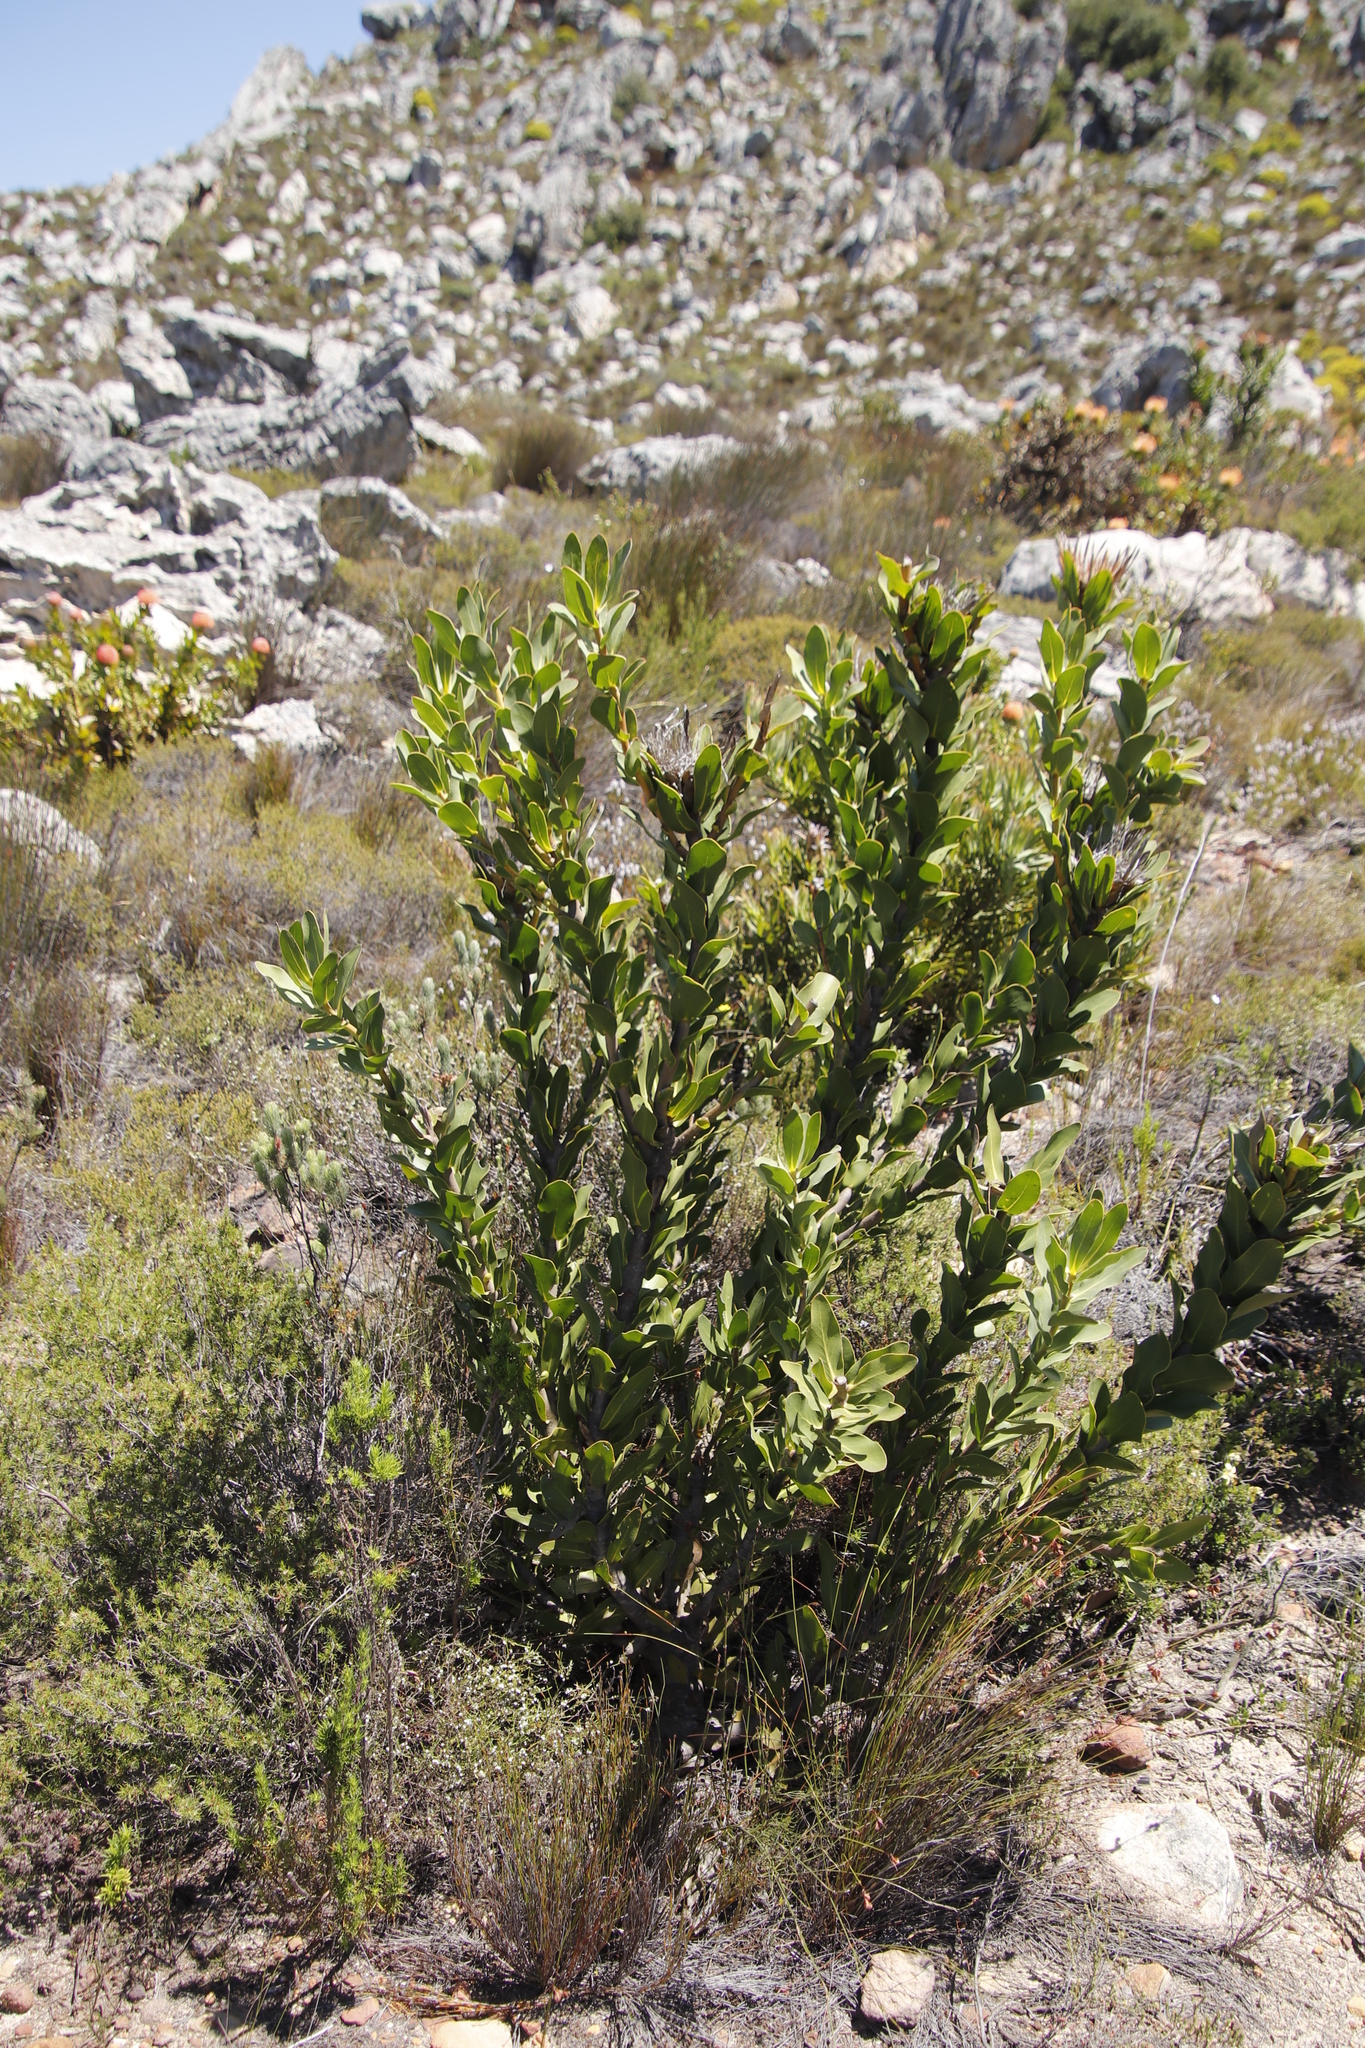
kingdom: Plantae
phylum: Tracheophyta
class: Magnoliopsida
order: Proteales
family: Proteaceae
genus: Protea
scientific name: Protea compacta
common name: Bot river protea
